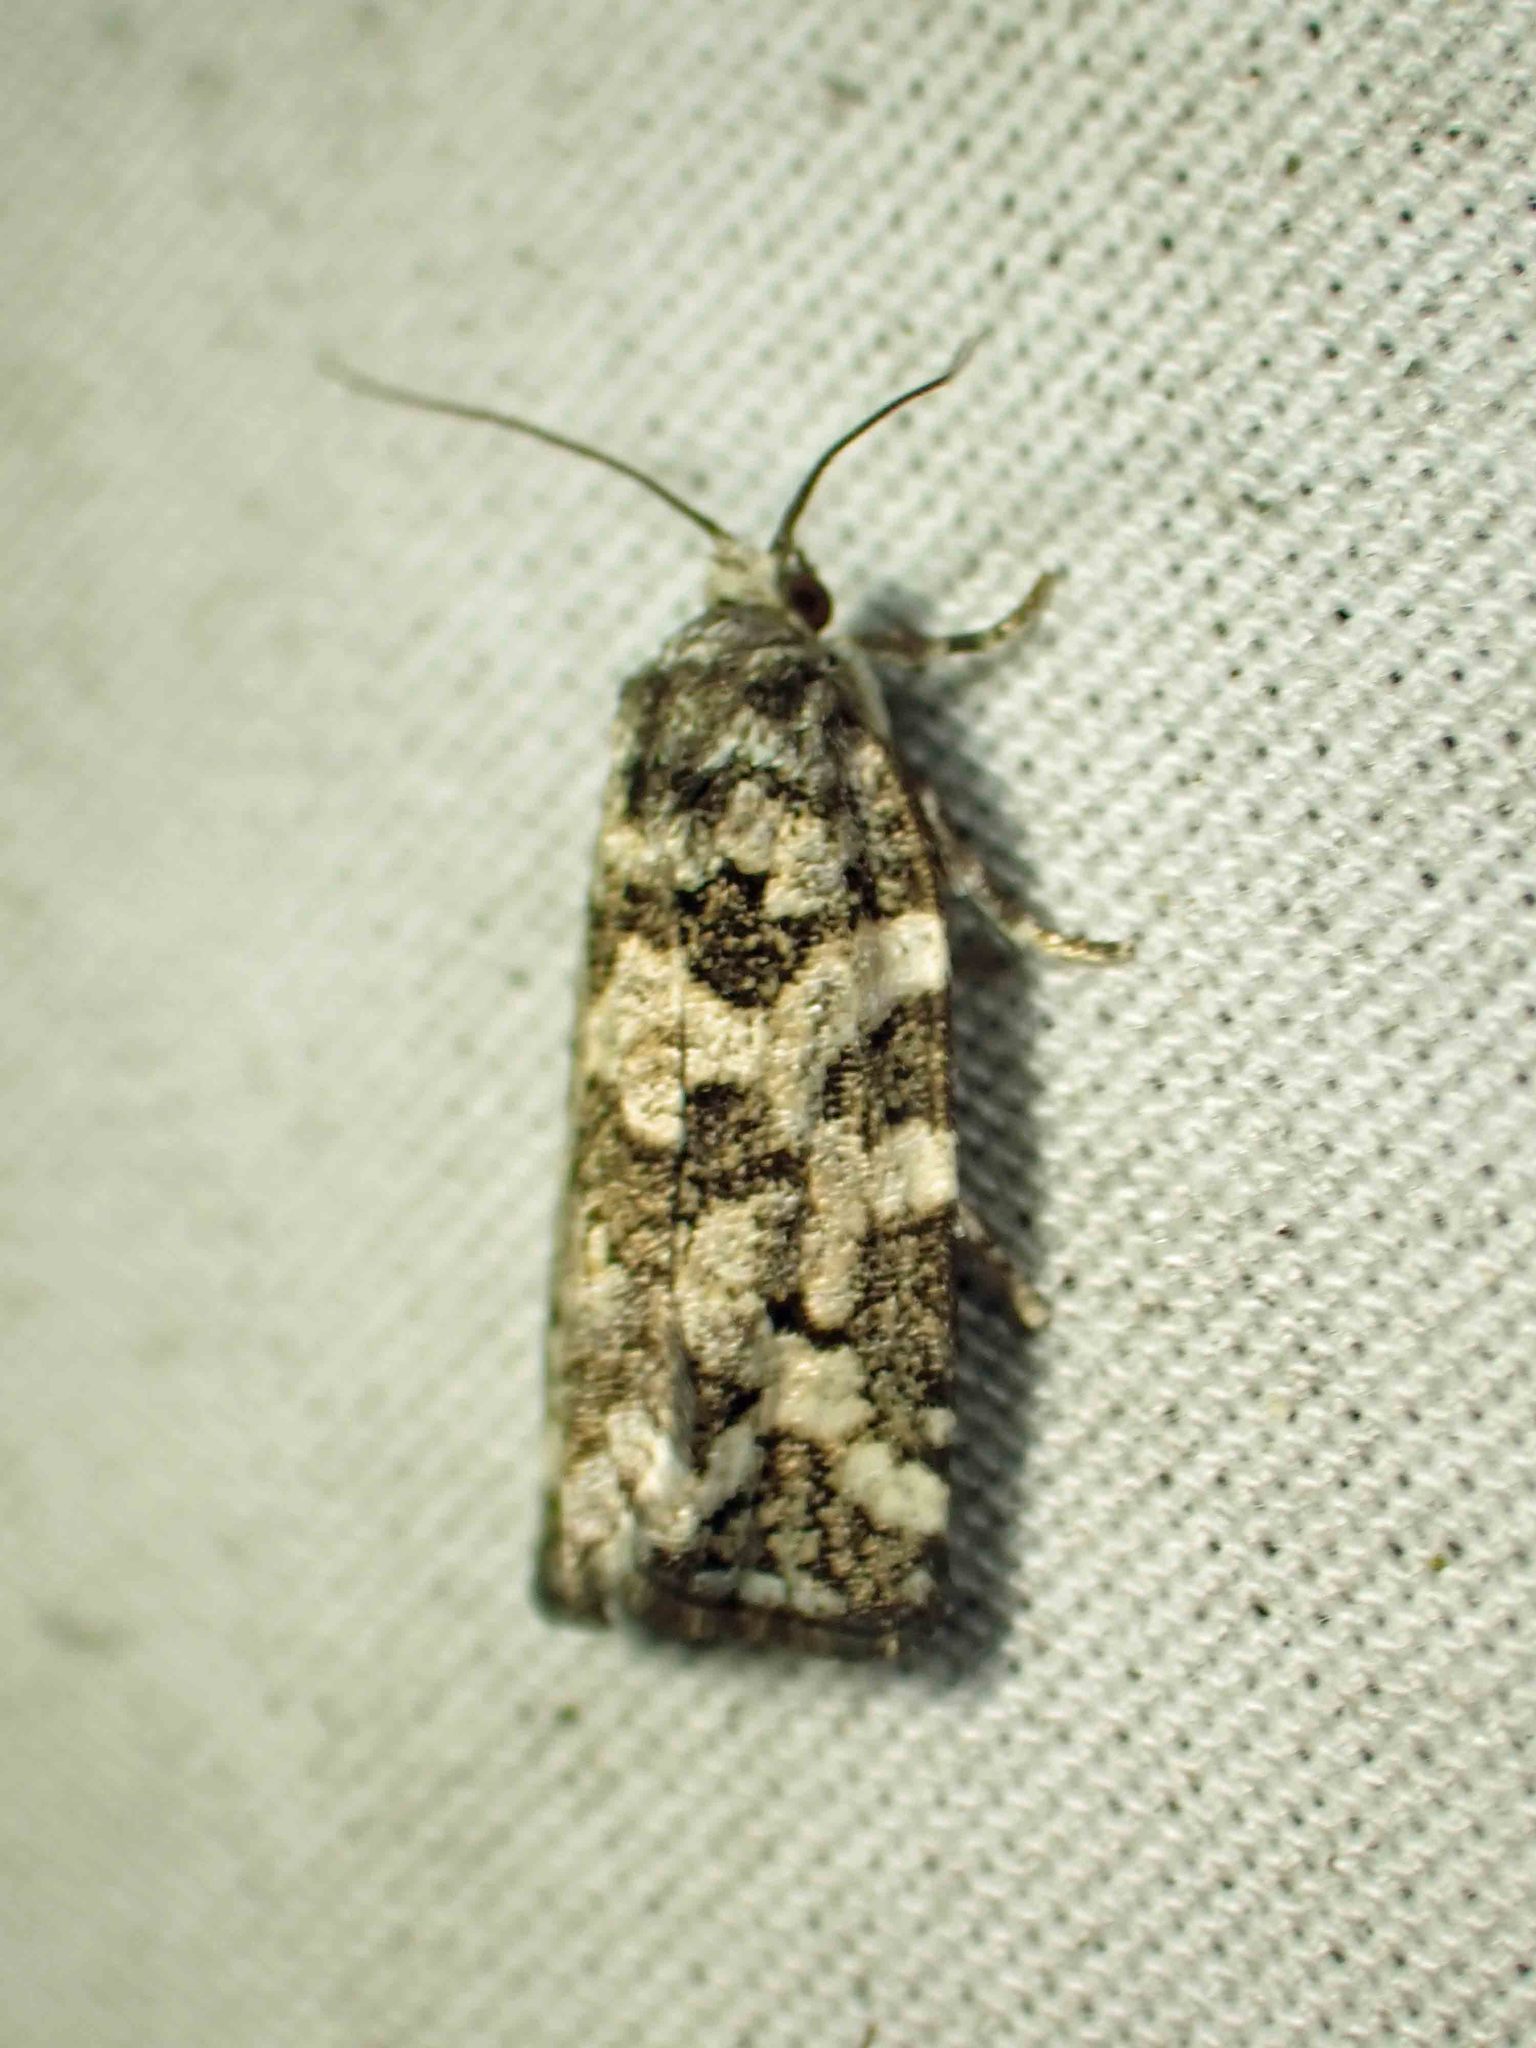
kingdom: Animalia
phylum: Arthropoda
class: Insecta
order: Lepidoptera
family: Tortricidae
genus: Archips
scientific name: Archips packardiana
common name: Spring spruce needle moth
